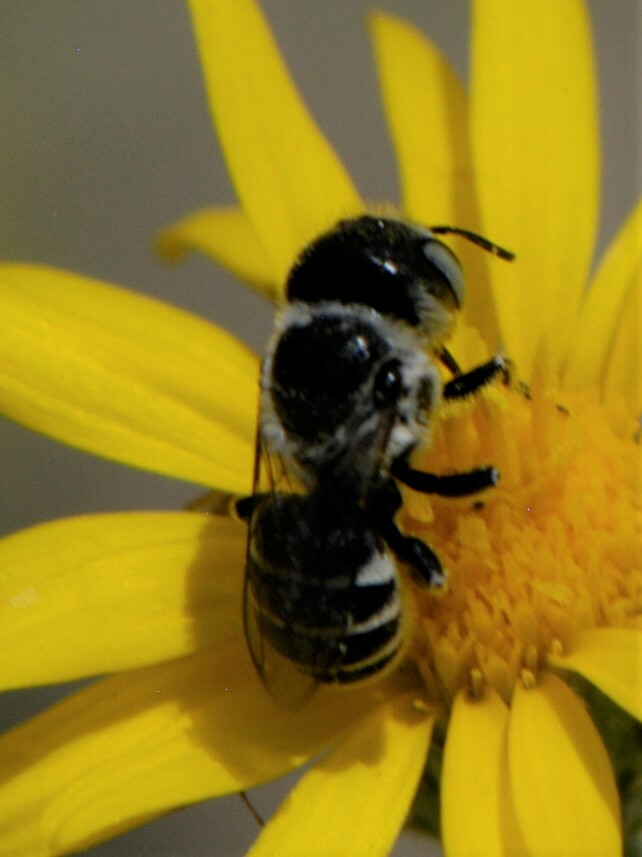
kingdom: Animalia
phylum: Arthropoda
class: Insecta
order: Hymenoptera
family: Megachilidae
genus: Ashmeadiella
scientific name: Ashmeadiella
